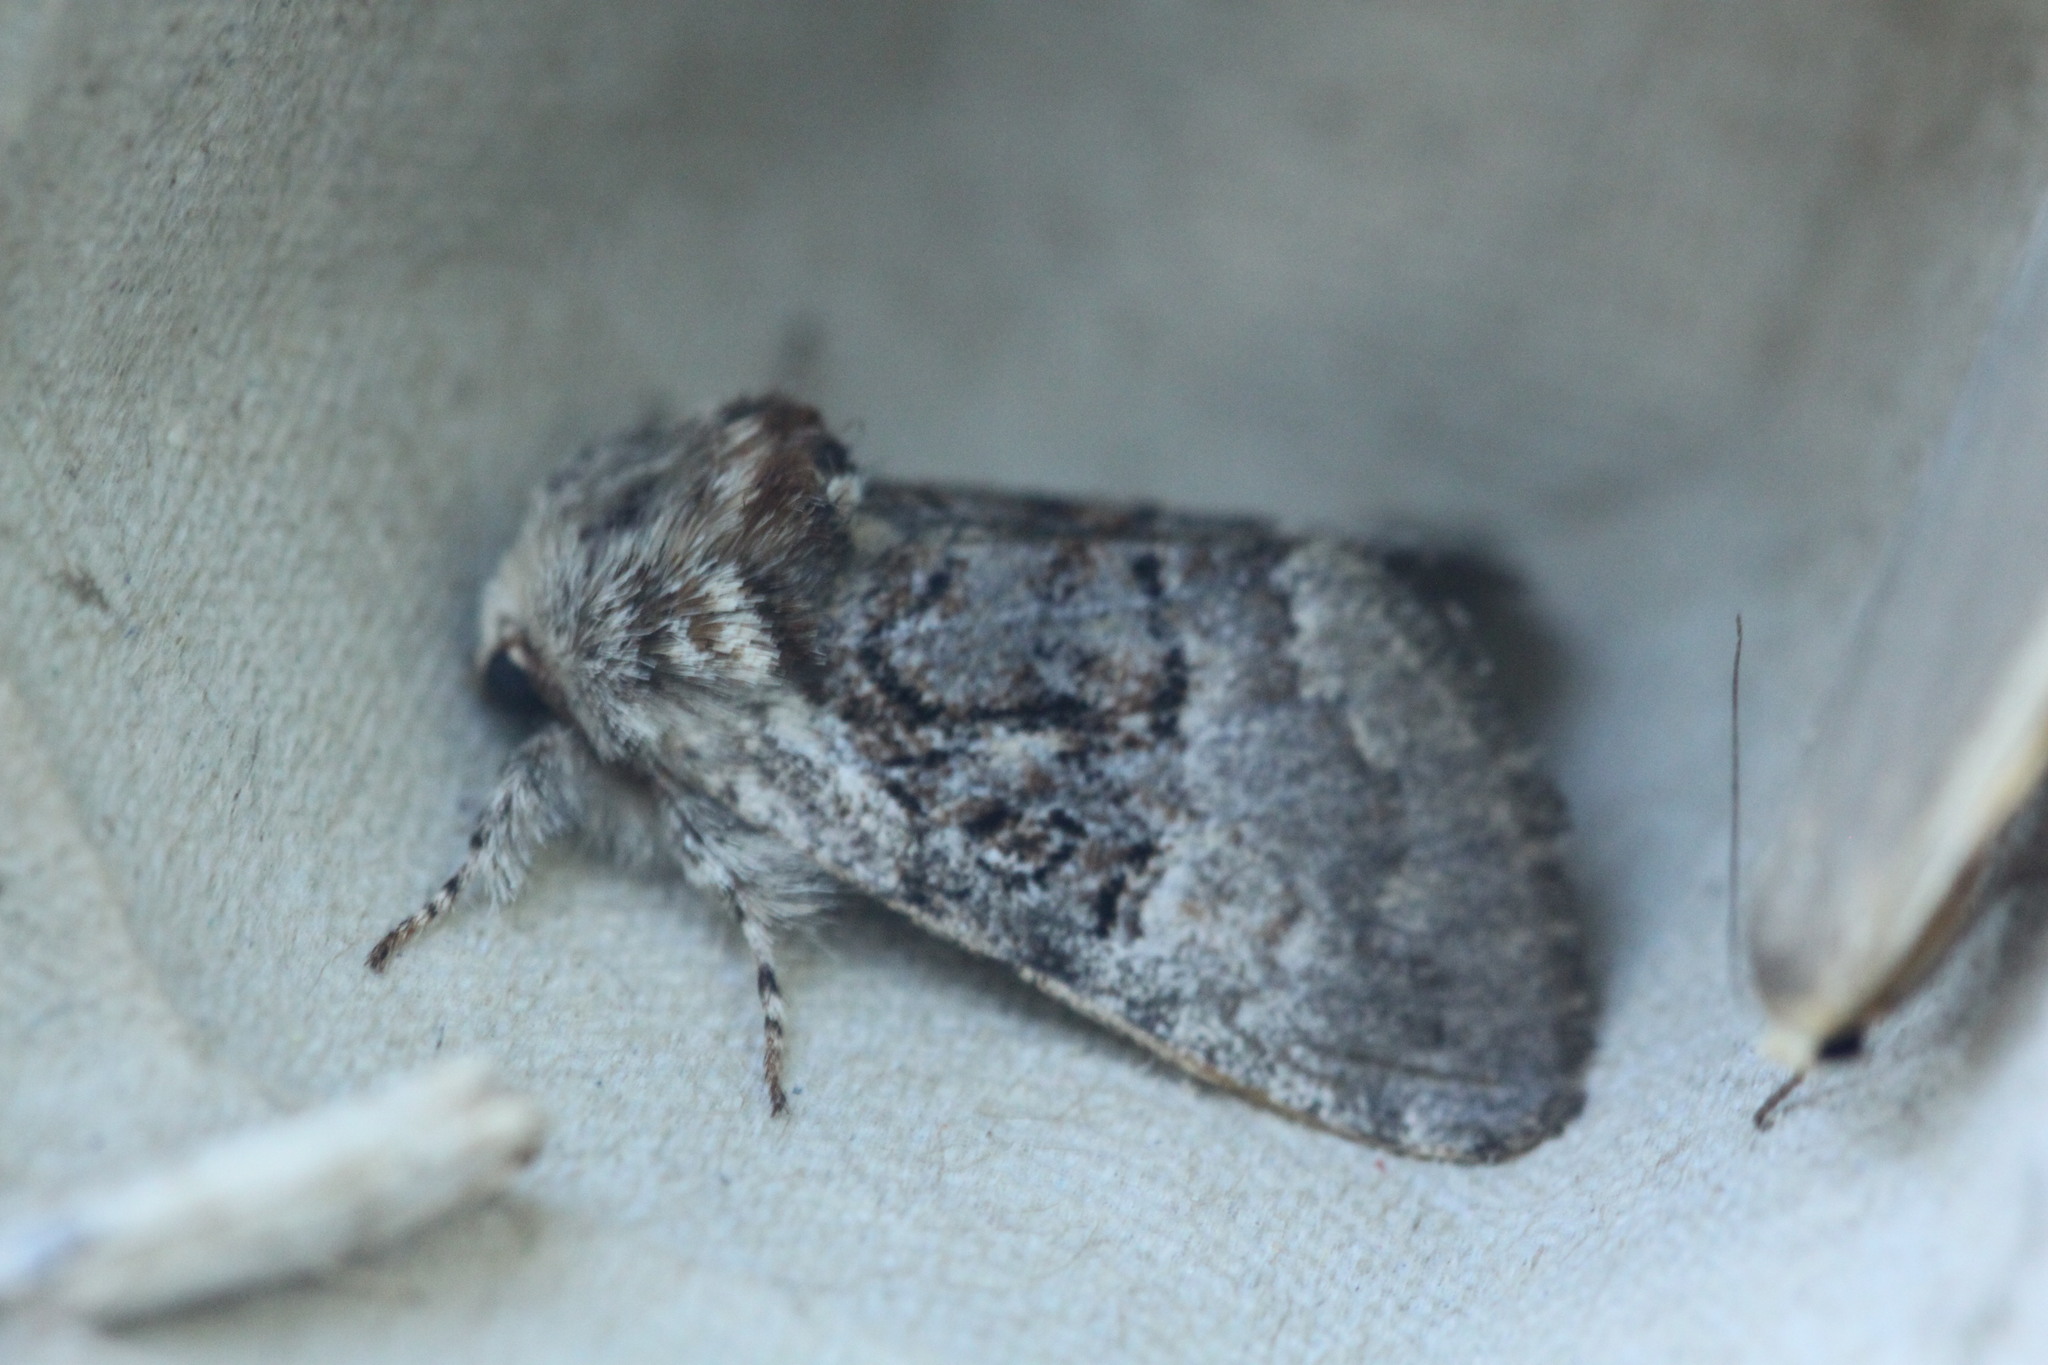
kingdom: Animalia
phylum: Arthropoda
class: Insecta
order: Lepidoptera
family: Noctuidae
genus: Colocasia
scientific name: Colocasia coryli
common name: Nut-tree tussock
